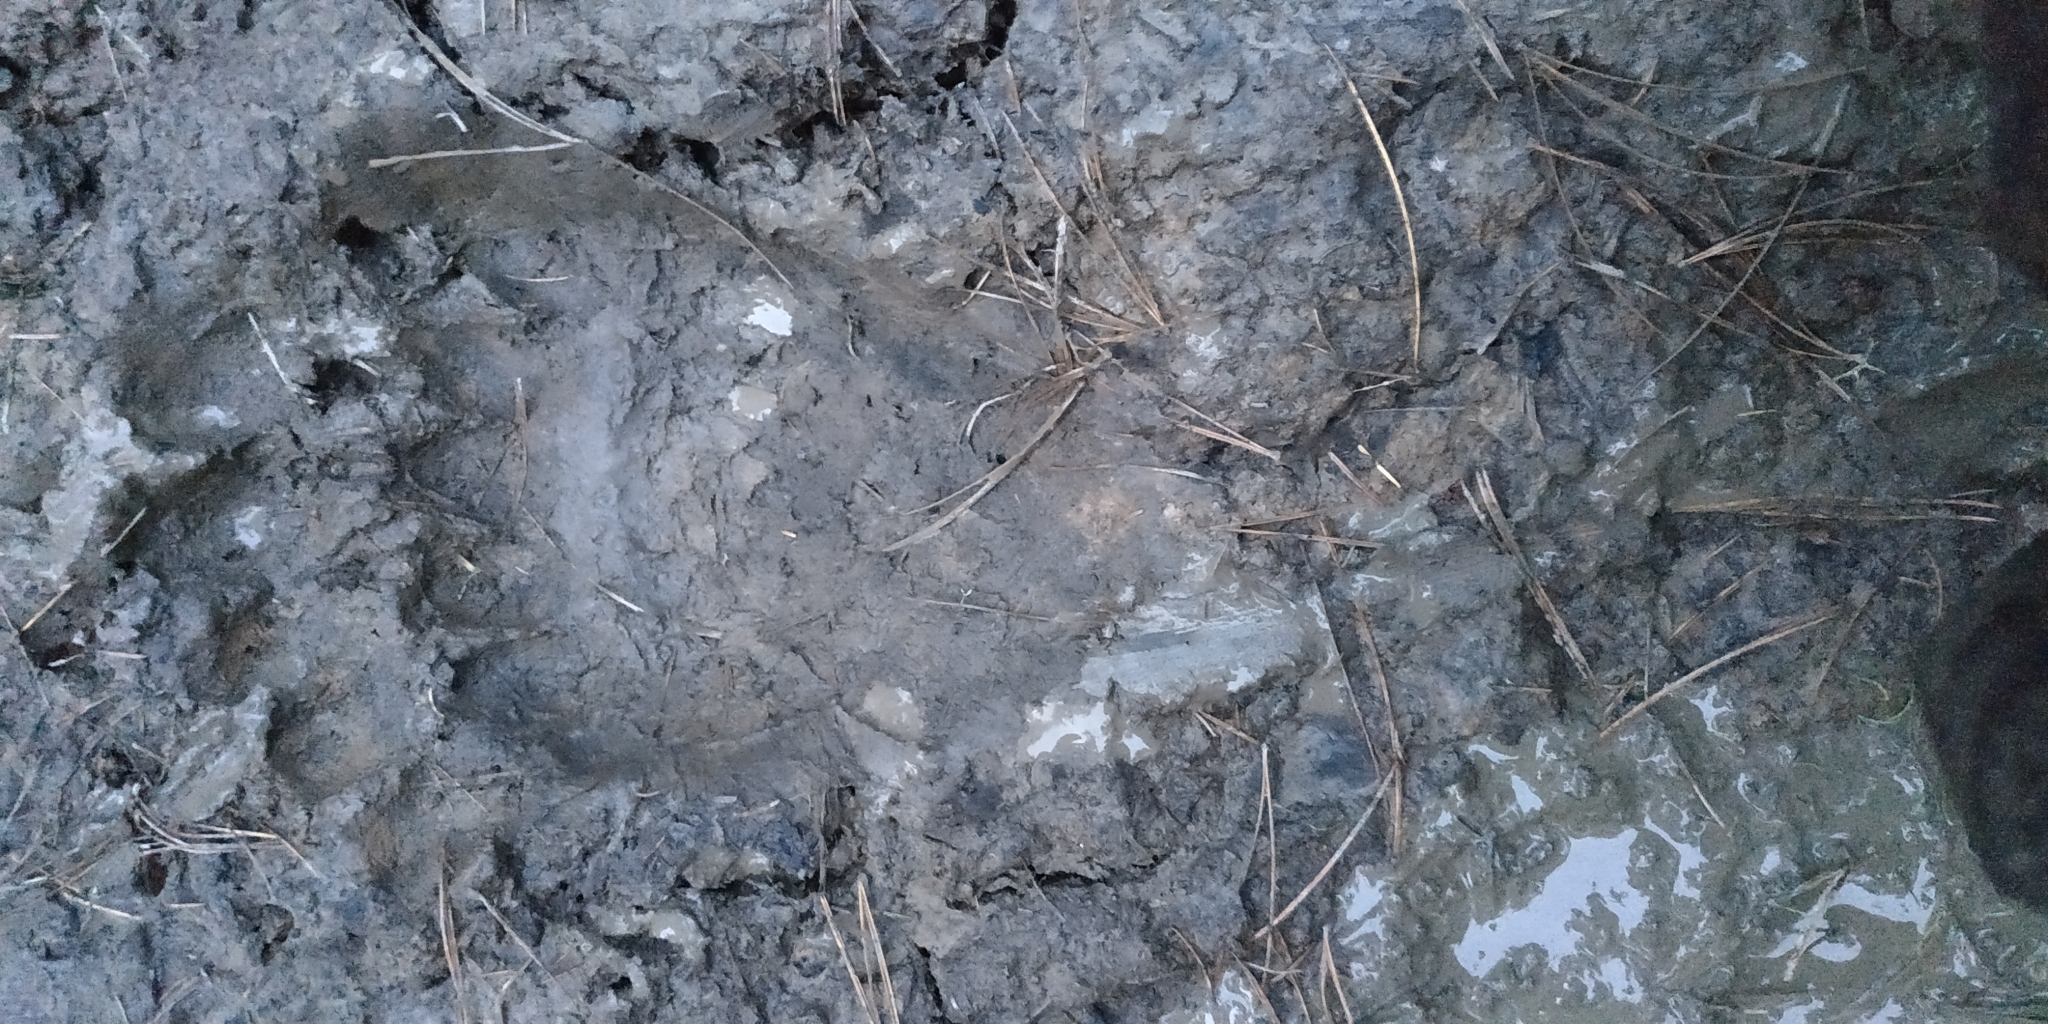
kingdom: Animalia
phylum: Chordata
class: Mammalia
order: Carnivora
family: Ursidae
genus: Ursus
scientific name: Ursus arctos
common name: Brown bear
